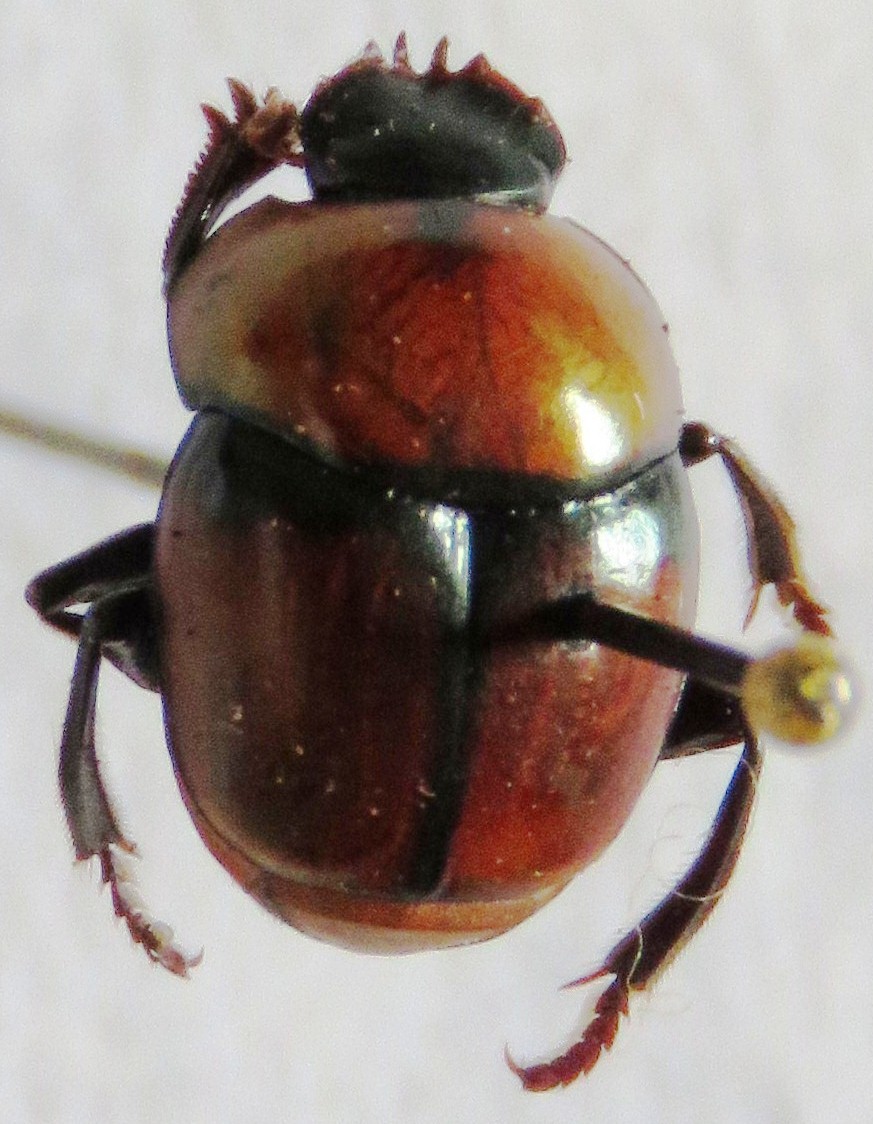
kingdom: Animalia
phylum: Arthropoda
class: Insecta
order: Coleoptera
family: Scarabaeidae
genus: Canthon
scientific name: Canthon cyanellus
